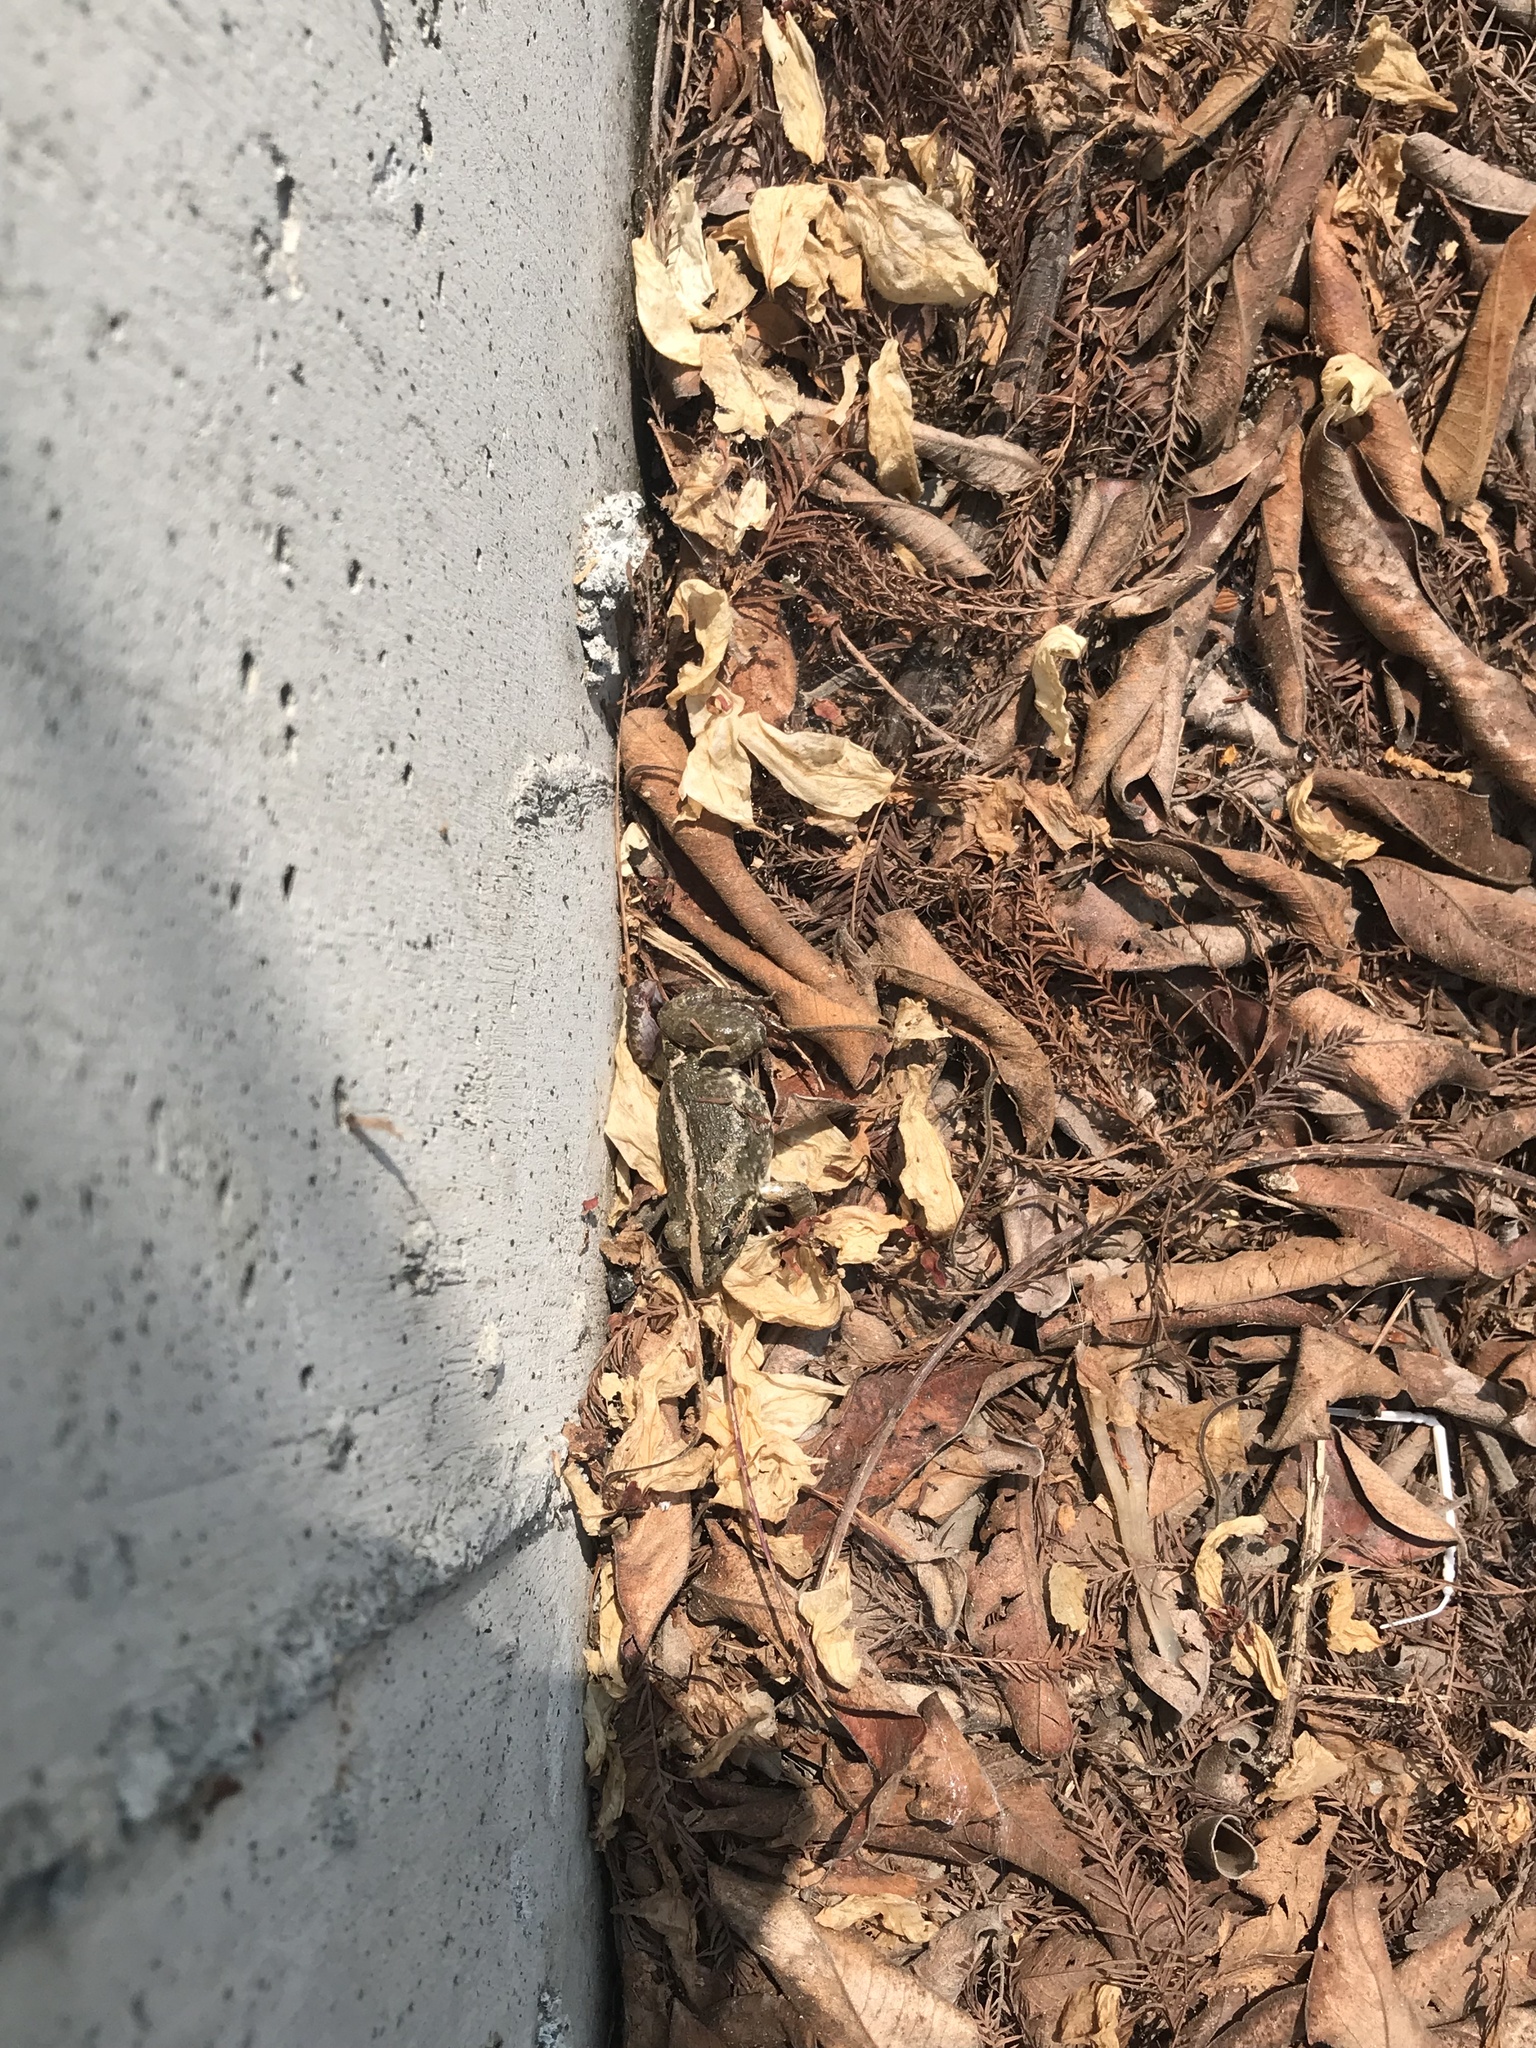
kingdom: Animalia
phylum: Chordata
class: Amphibia
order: Anura
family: Dicroglossidae
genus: Fejervarya
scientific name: Fejervarya limnocharis
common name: Asian grass frog/common pond frog/field frog/grass frog/indian rice frog
